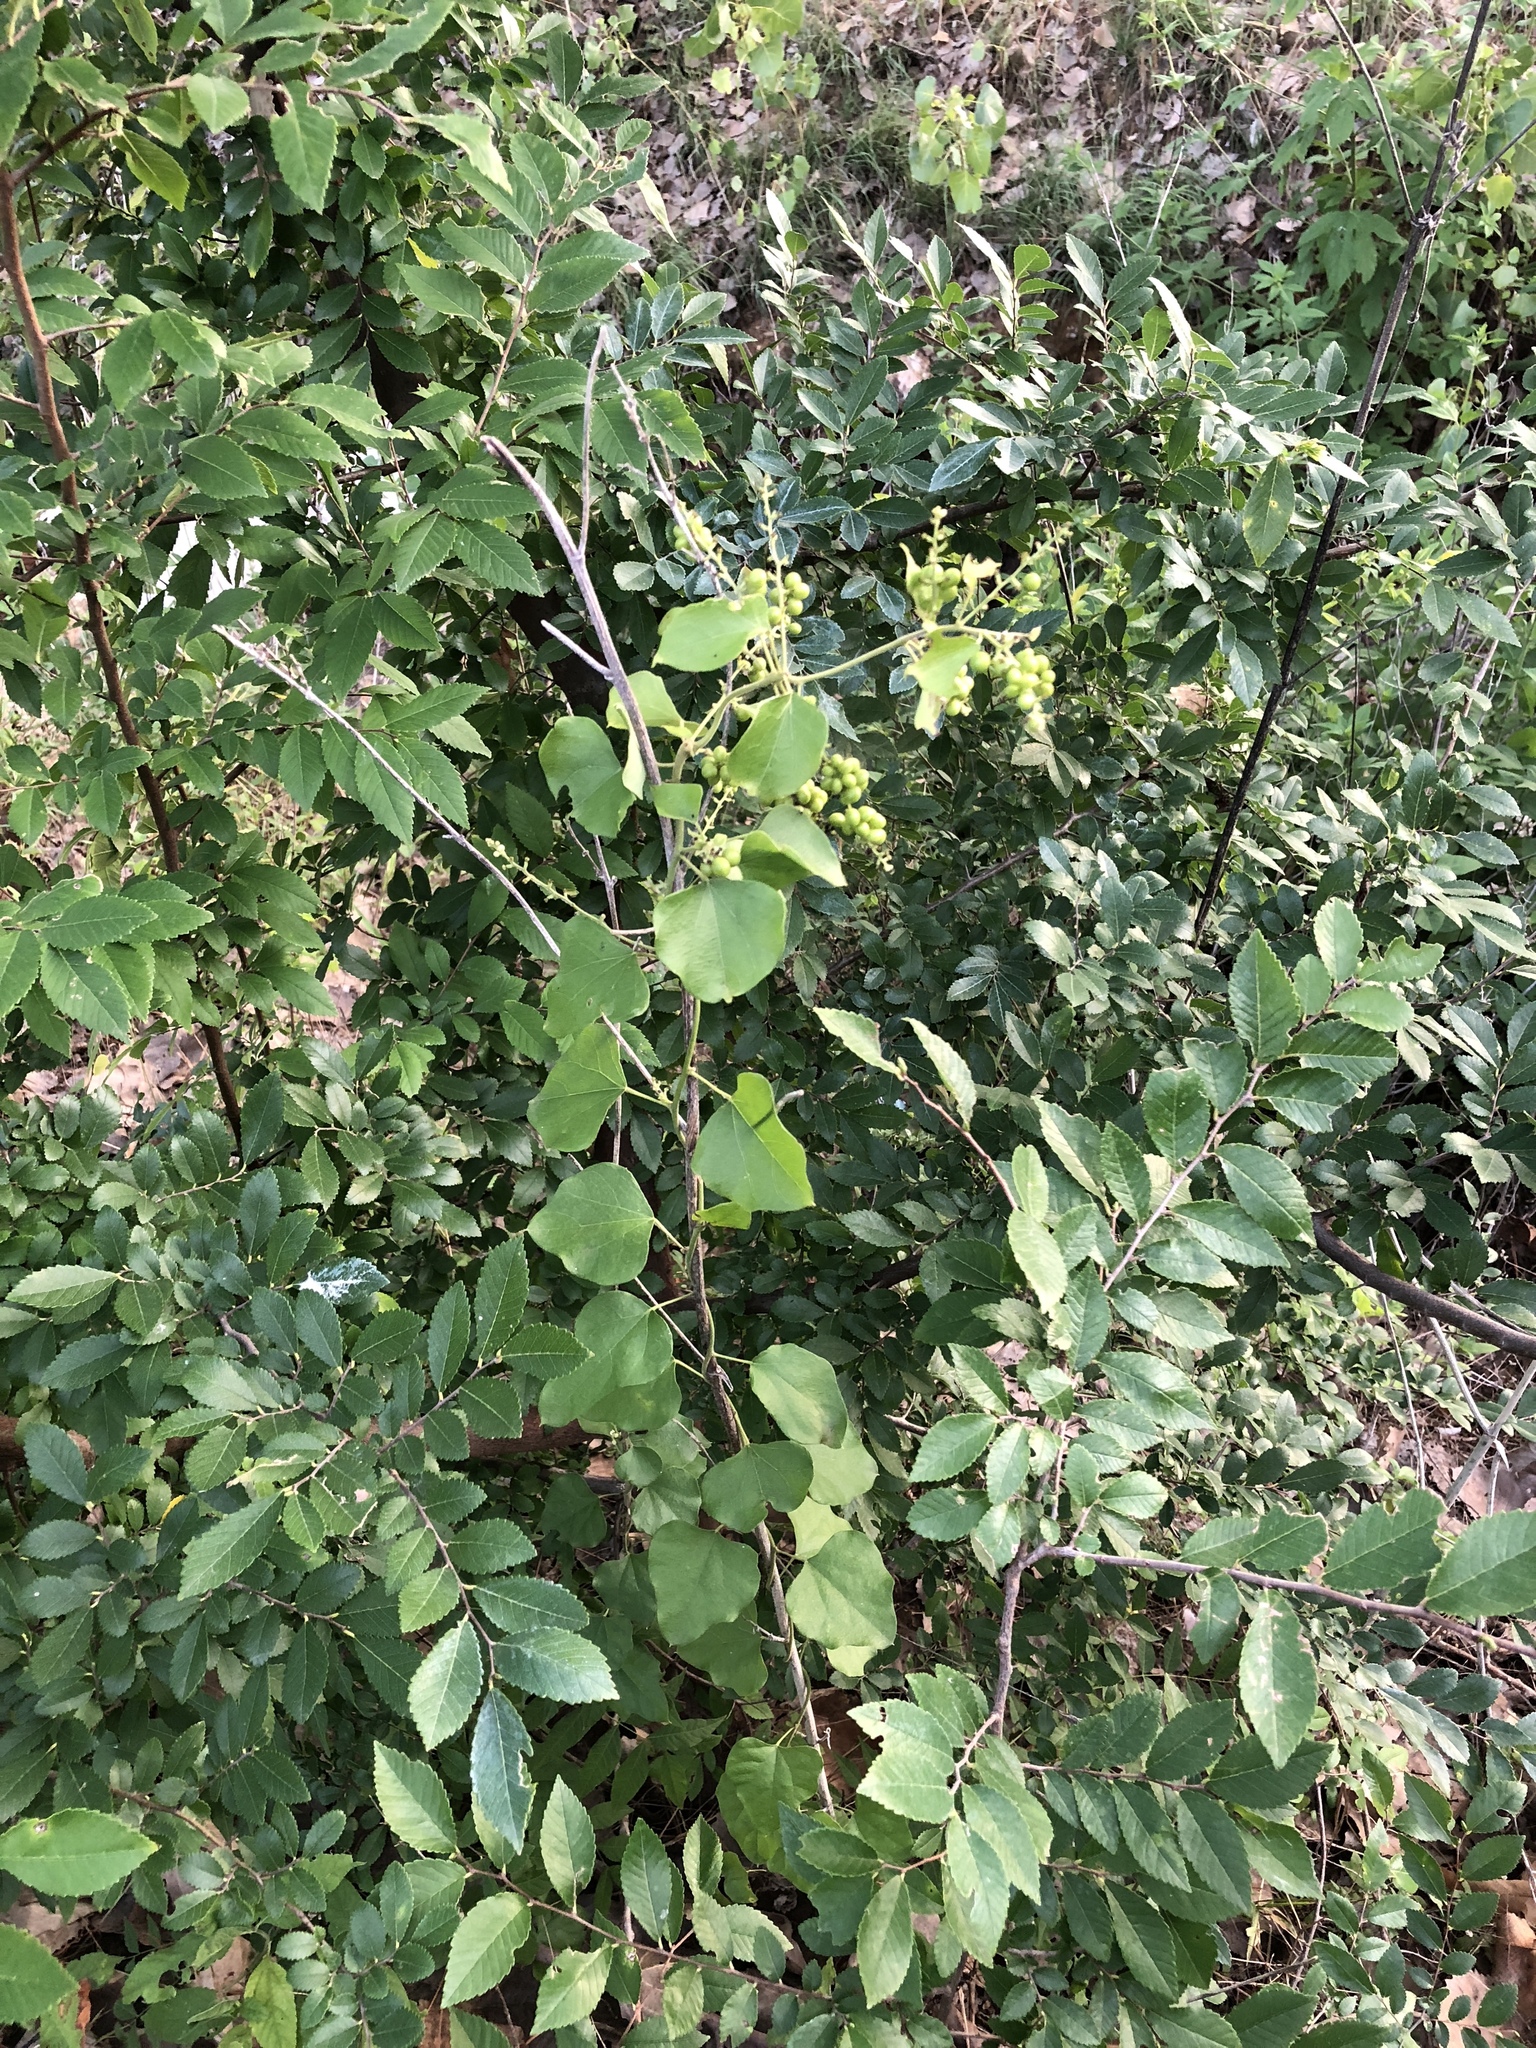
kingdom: Plantae
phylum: Tracheophyta
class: Magnoliopsida
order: Ranunculales
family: Menispermaceae
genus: Cocculus
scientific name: Cocculus carolinus
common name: Carolina moonseed
